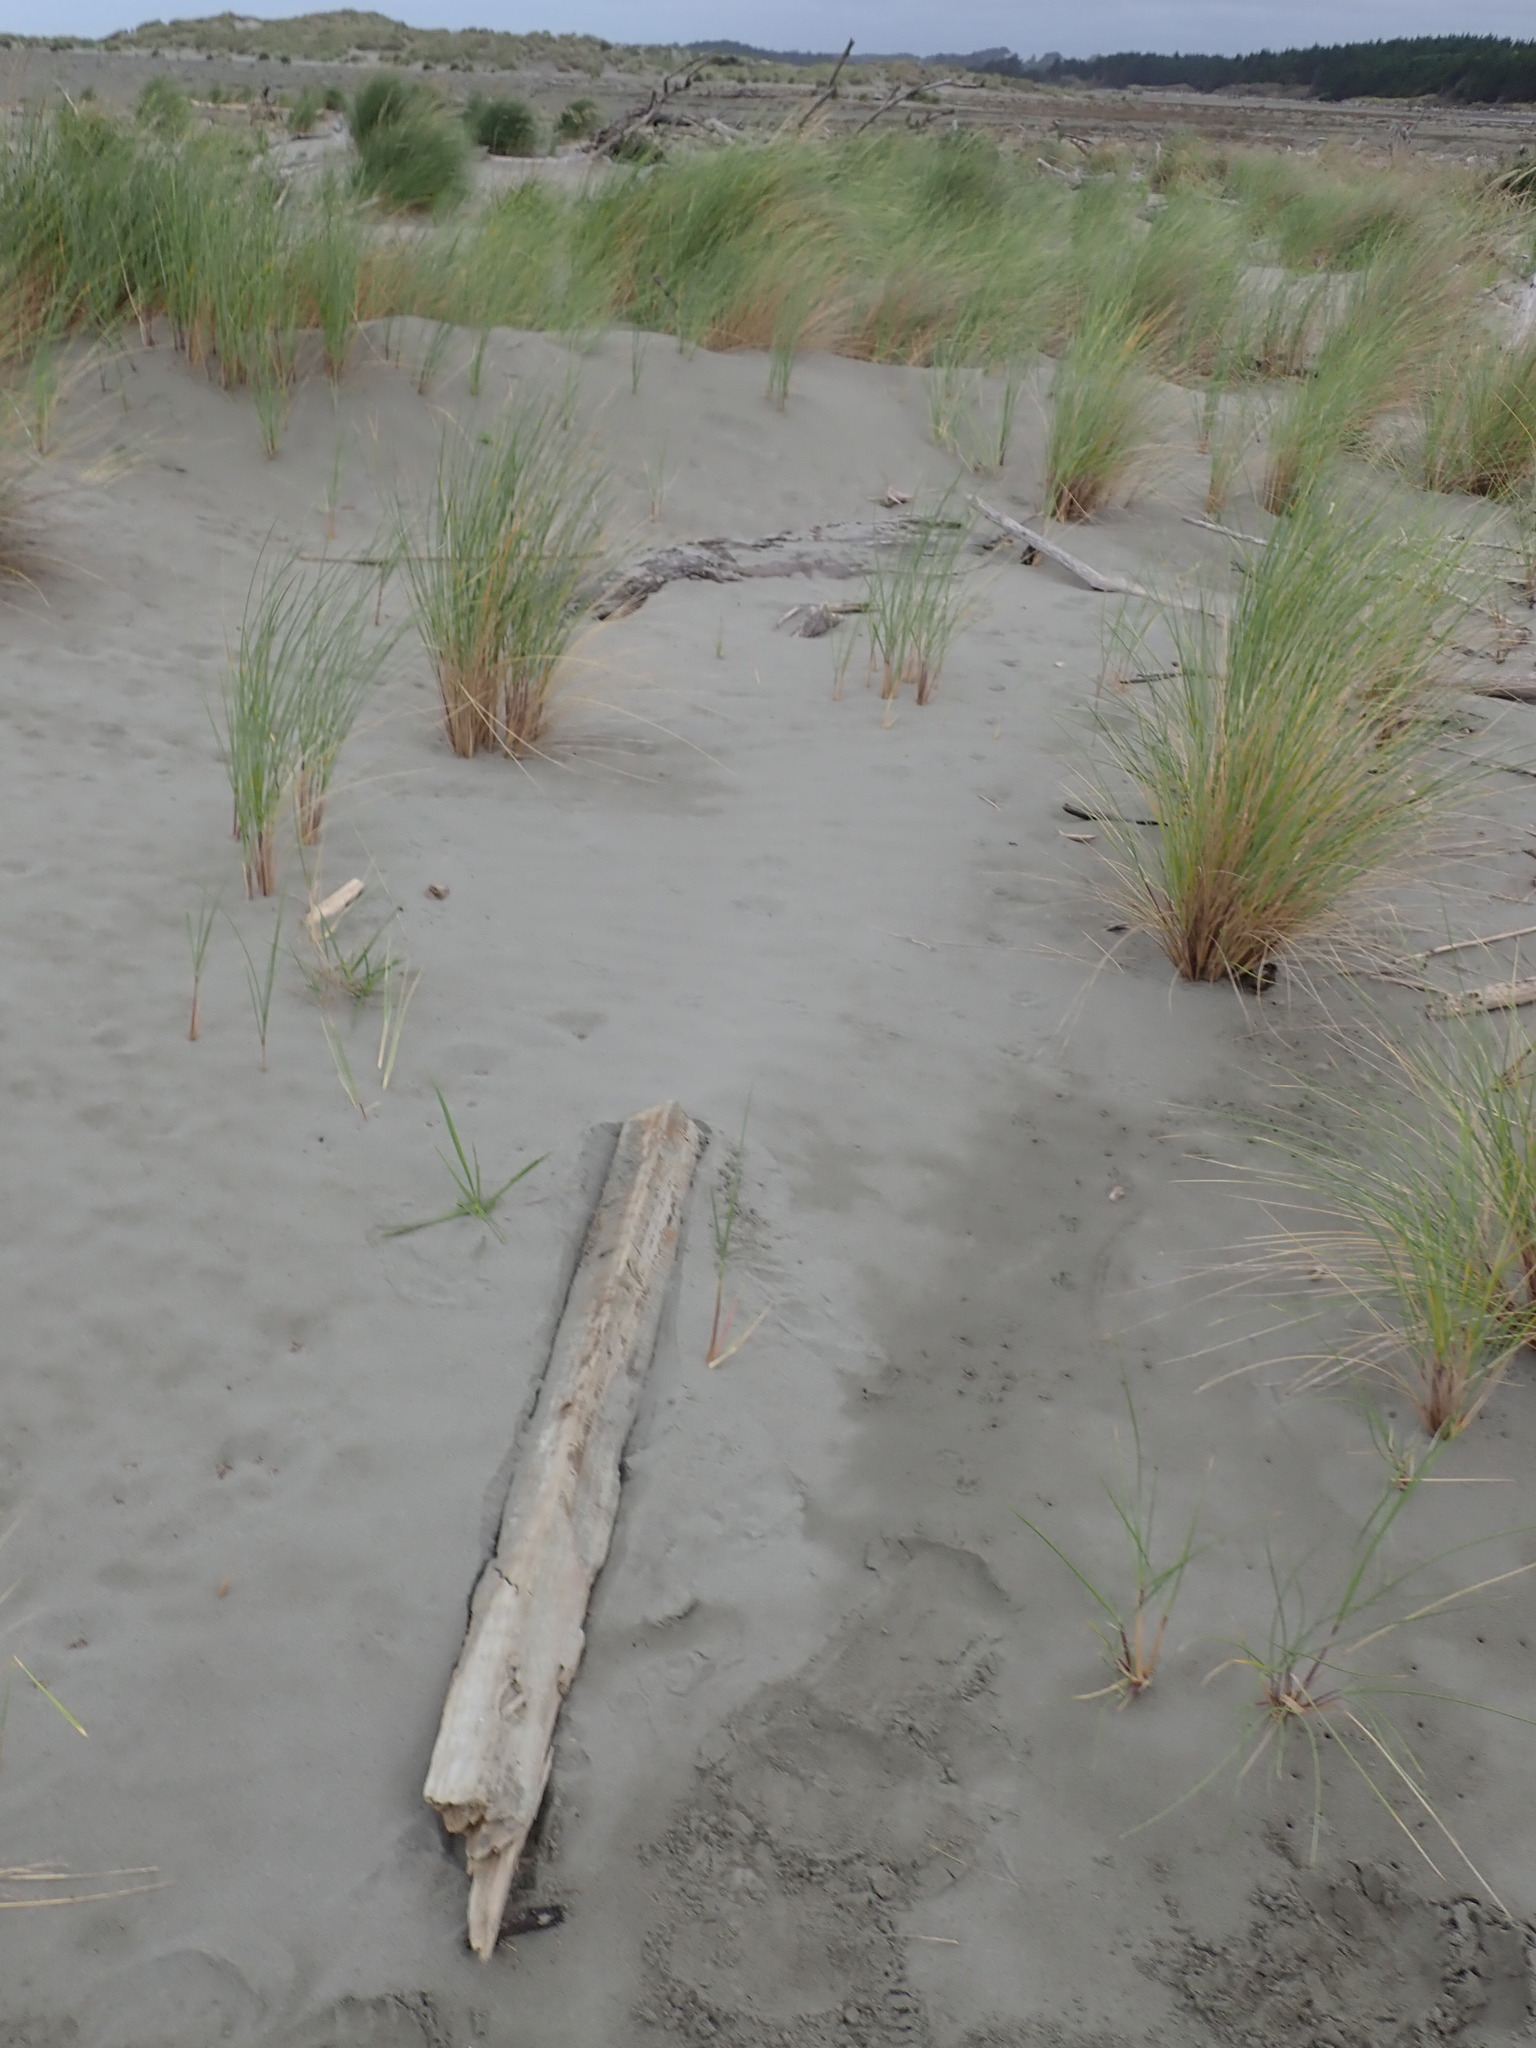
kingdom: Animalia
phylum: Arthropoda
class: Insecta
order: Coleoptera
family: Curculionidae
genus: Mesites
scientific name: Mesites pallidipennis
